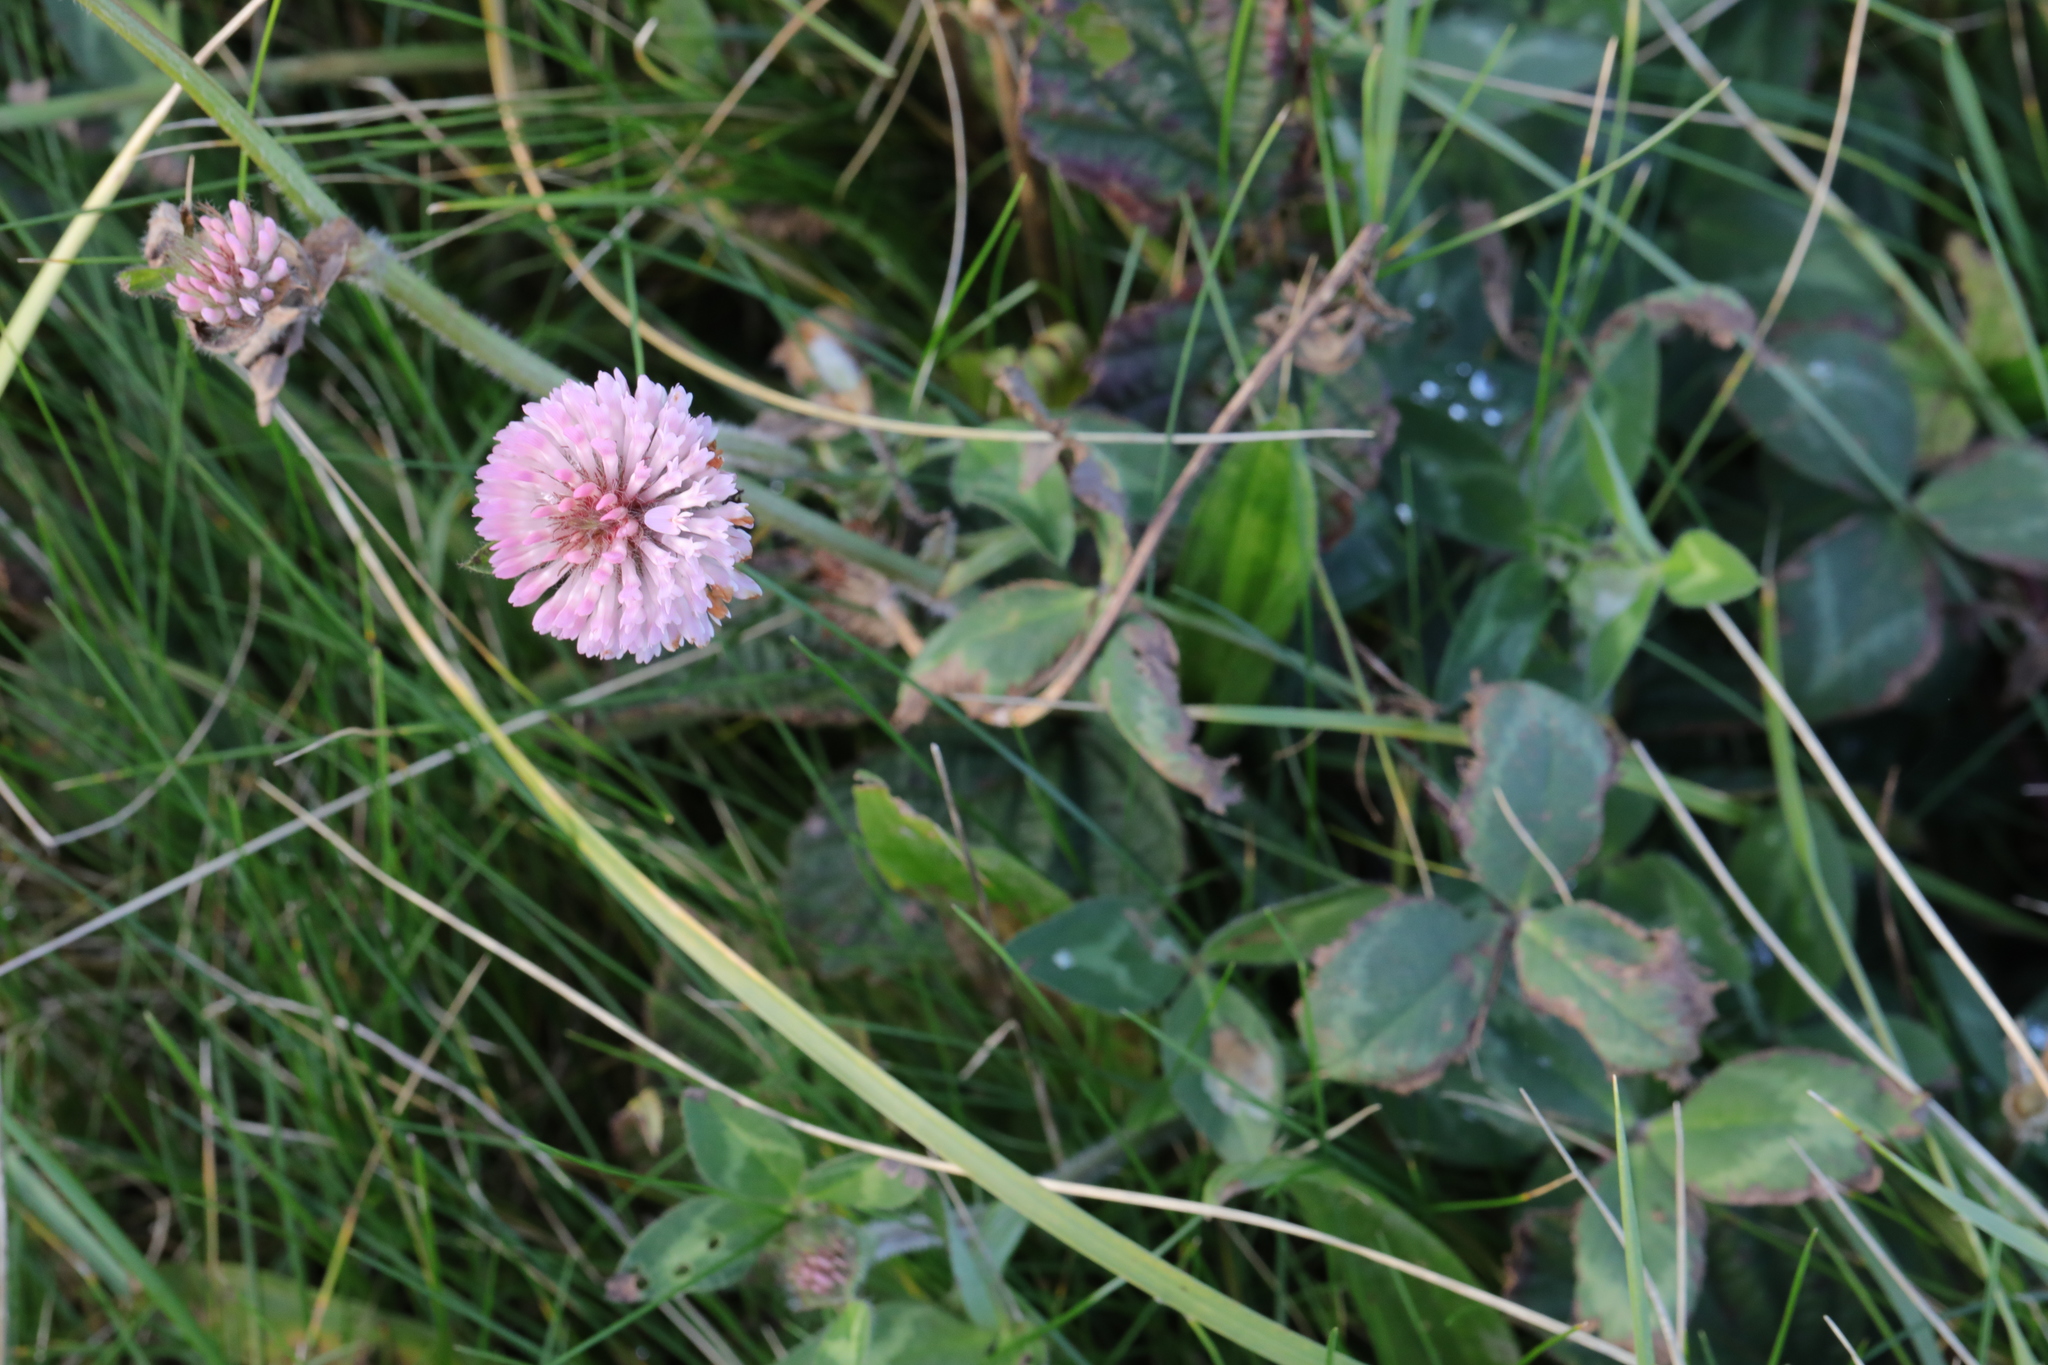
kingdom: Plantae
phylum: Tracheophyta
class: Magnoliopsida
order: Fabales
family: Fabaceae
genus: Trifolium
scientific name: Trifolium pratense
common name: Red clover
